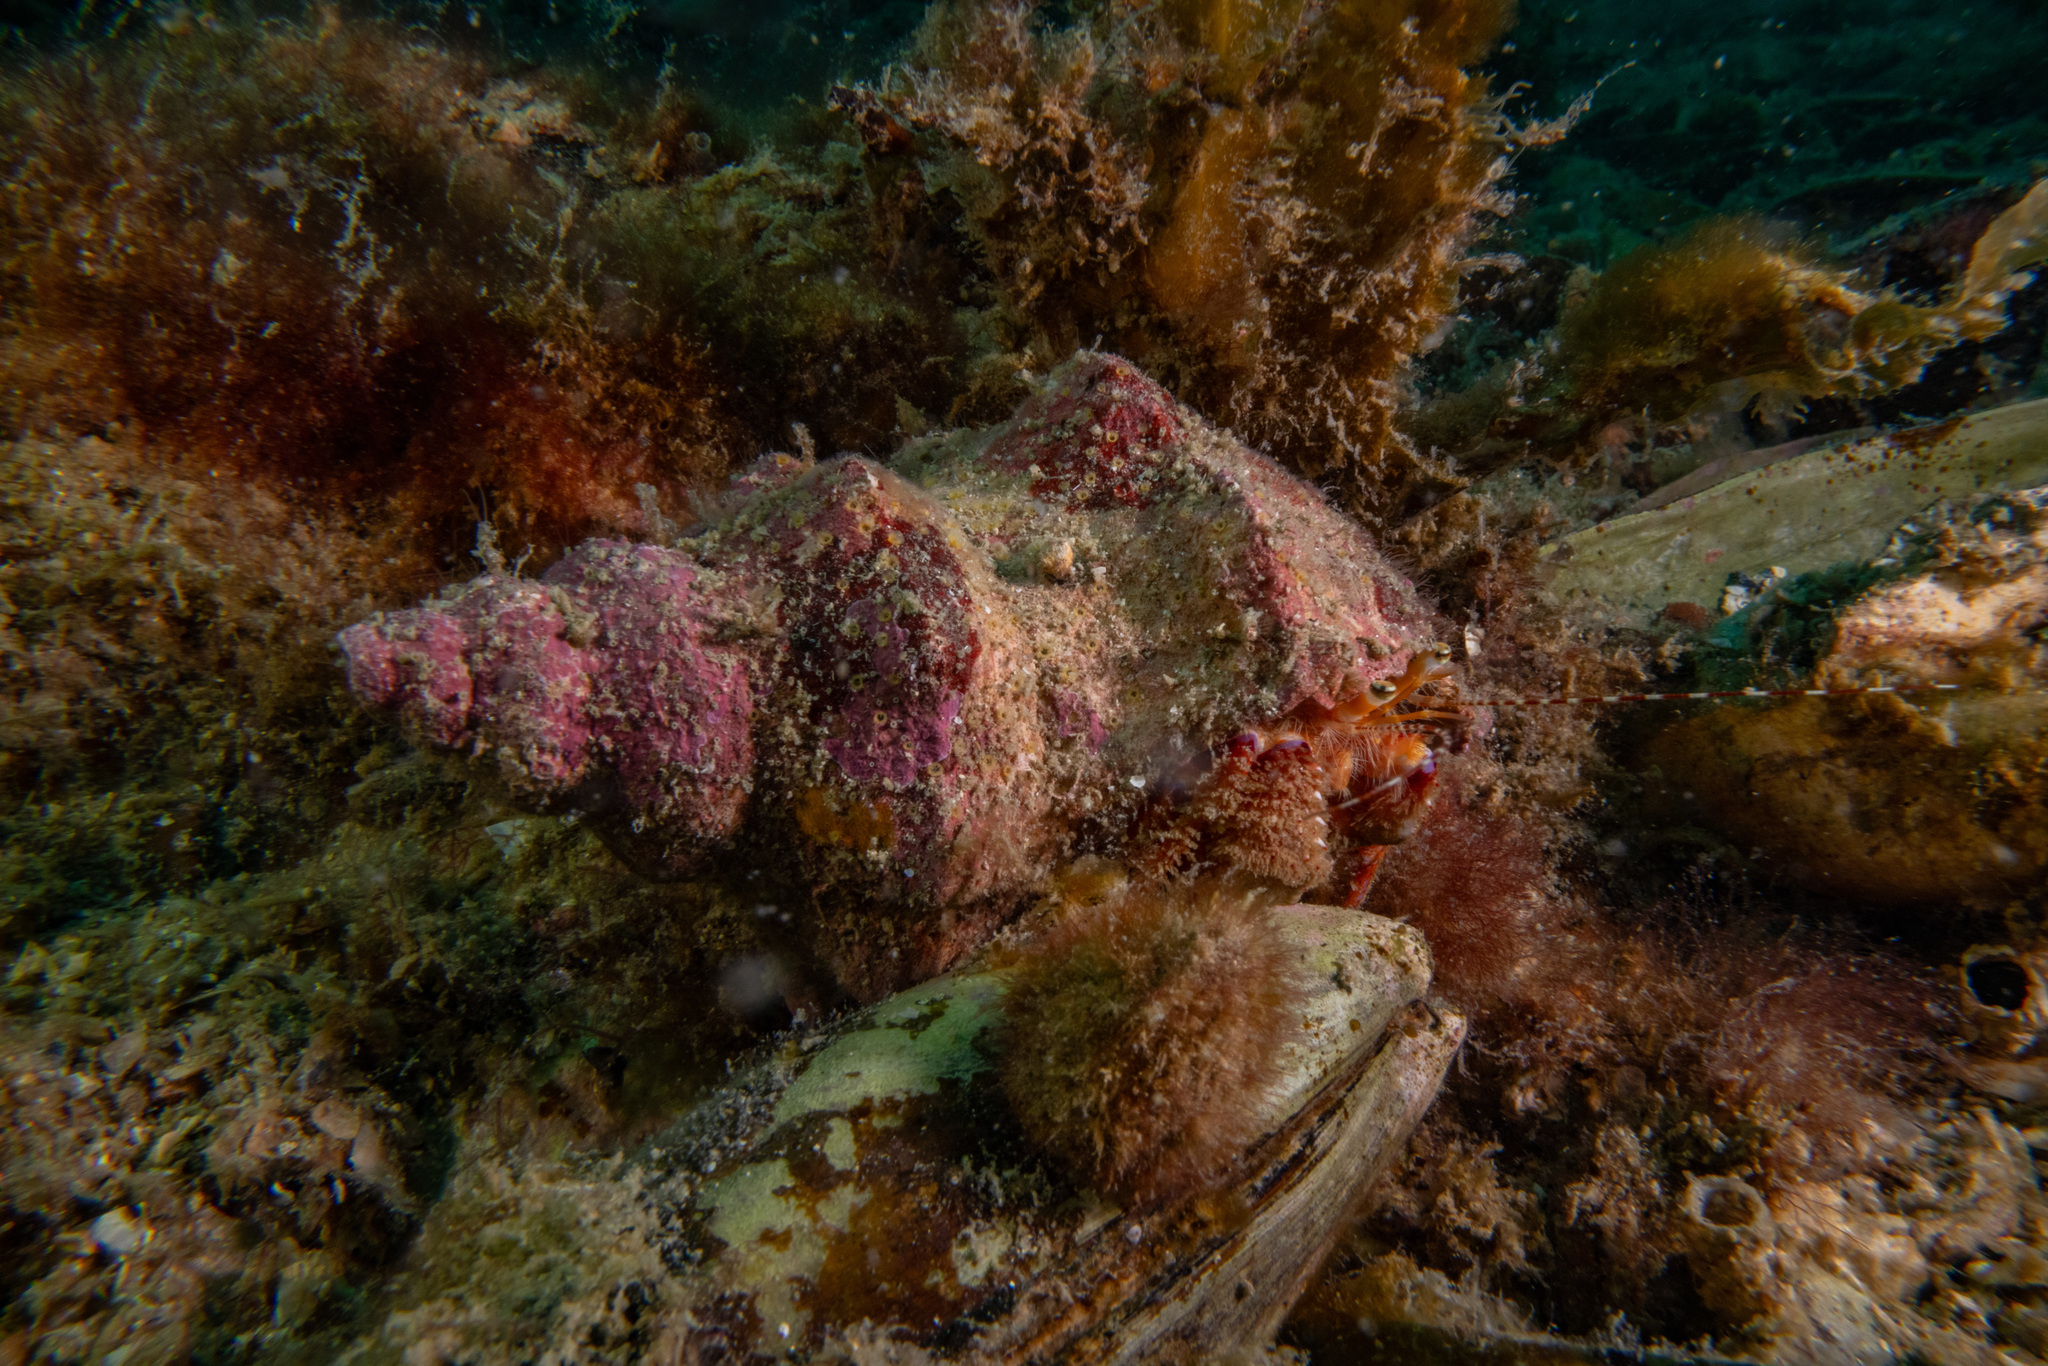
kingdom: Animalia
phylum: Arthropoda
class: Malacostraca
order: Decapoda
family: Paguridae
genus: Diacanthurus
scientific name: Diacanthurus spinulimanus
